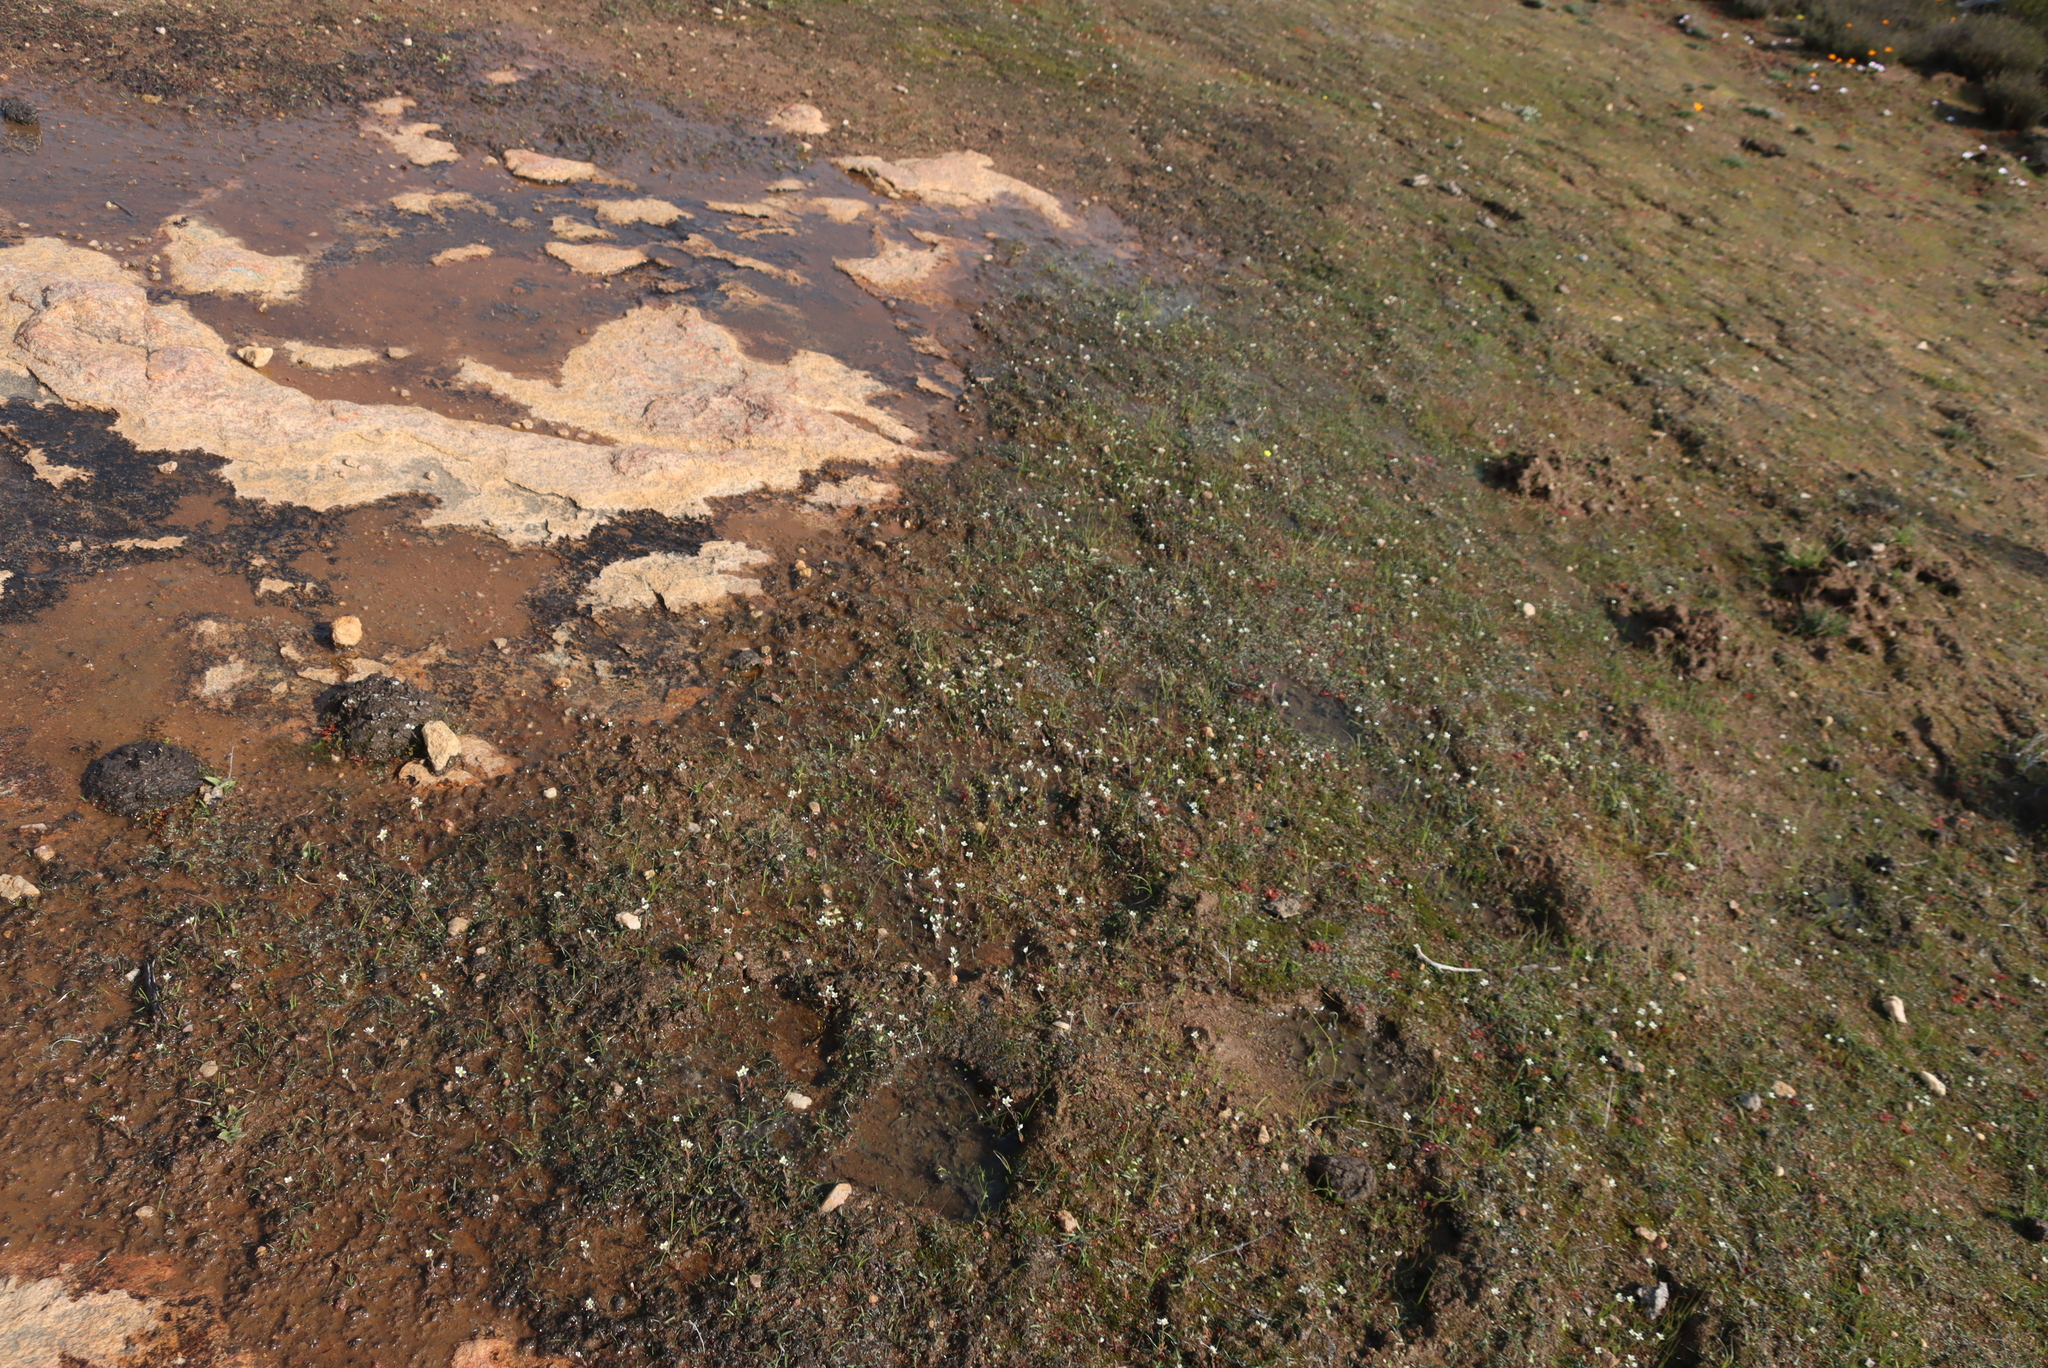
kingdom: Plantae
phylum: Tracheophyta
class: Magnoliopsida
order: Brassicales
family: Brassicaceae
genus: Heliophila
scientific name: Heliophila namaquana
